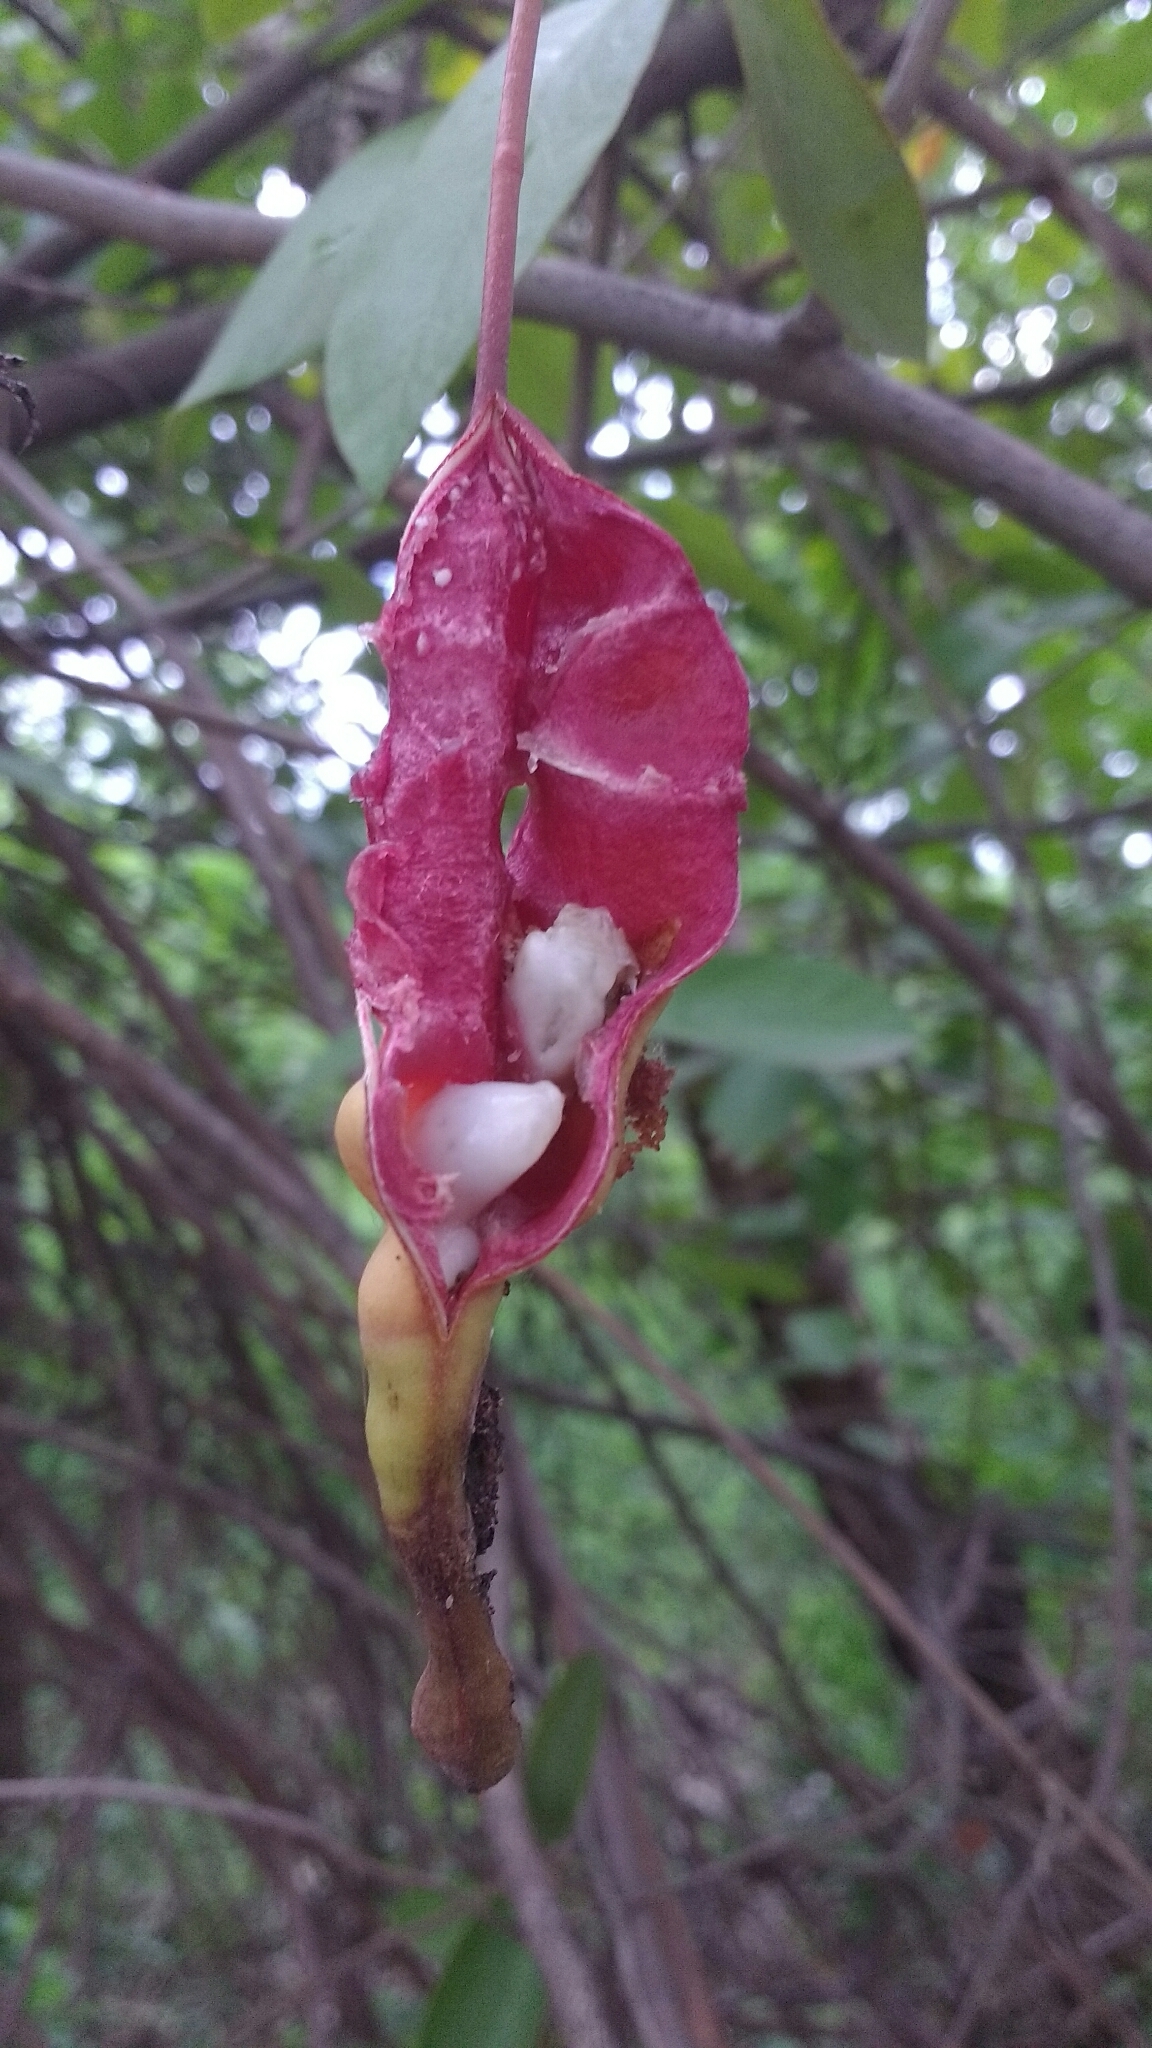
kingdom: Plantae
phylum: Tracheophyta
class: Magnoliopsida
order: Brassicales
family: Capparaceae
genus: Cynophalla
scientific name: Cynophalla flexuosa
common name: Capertree
